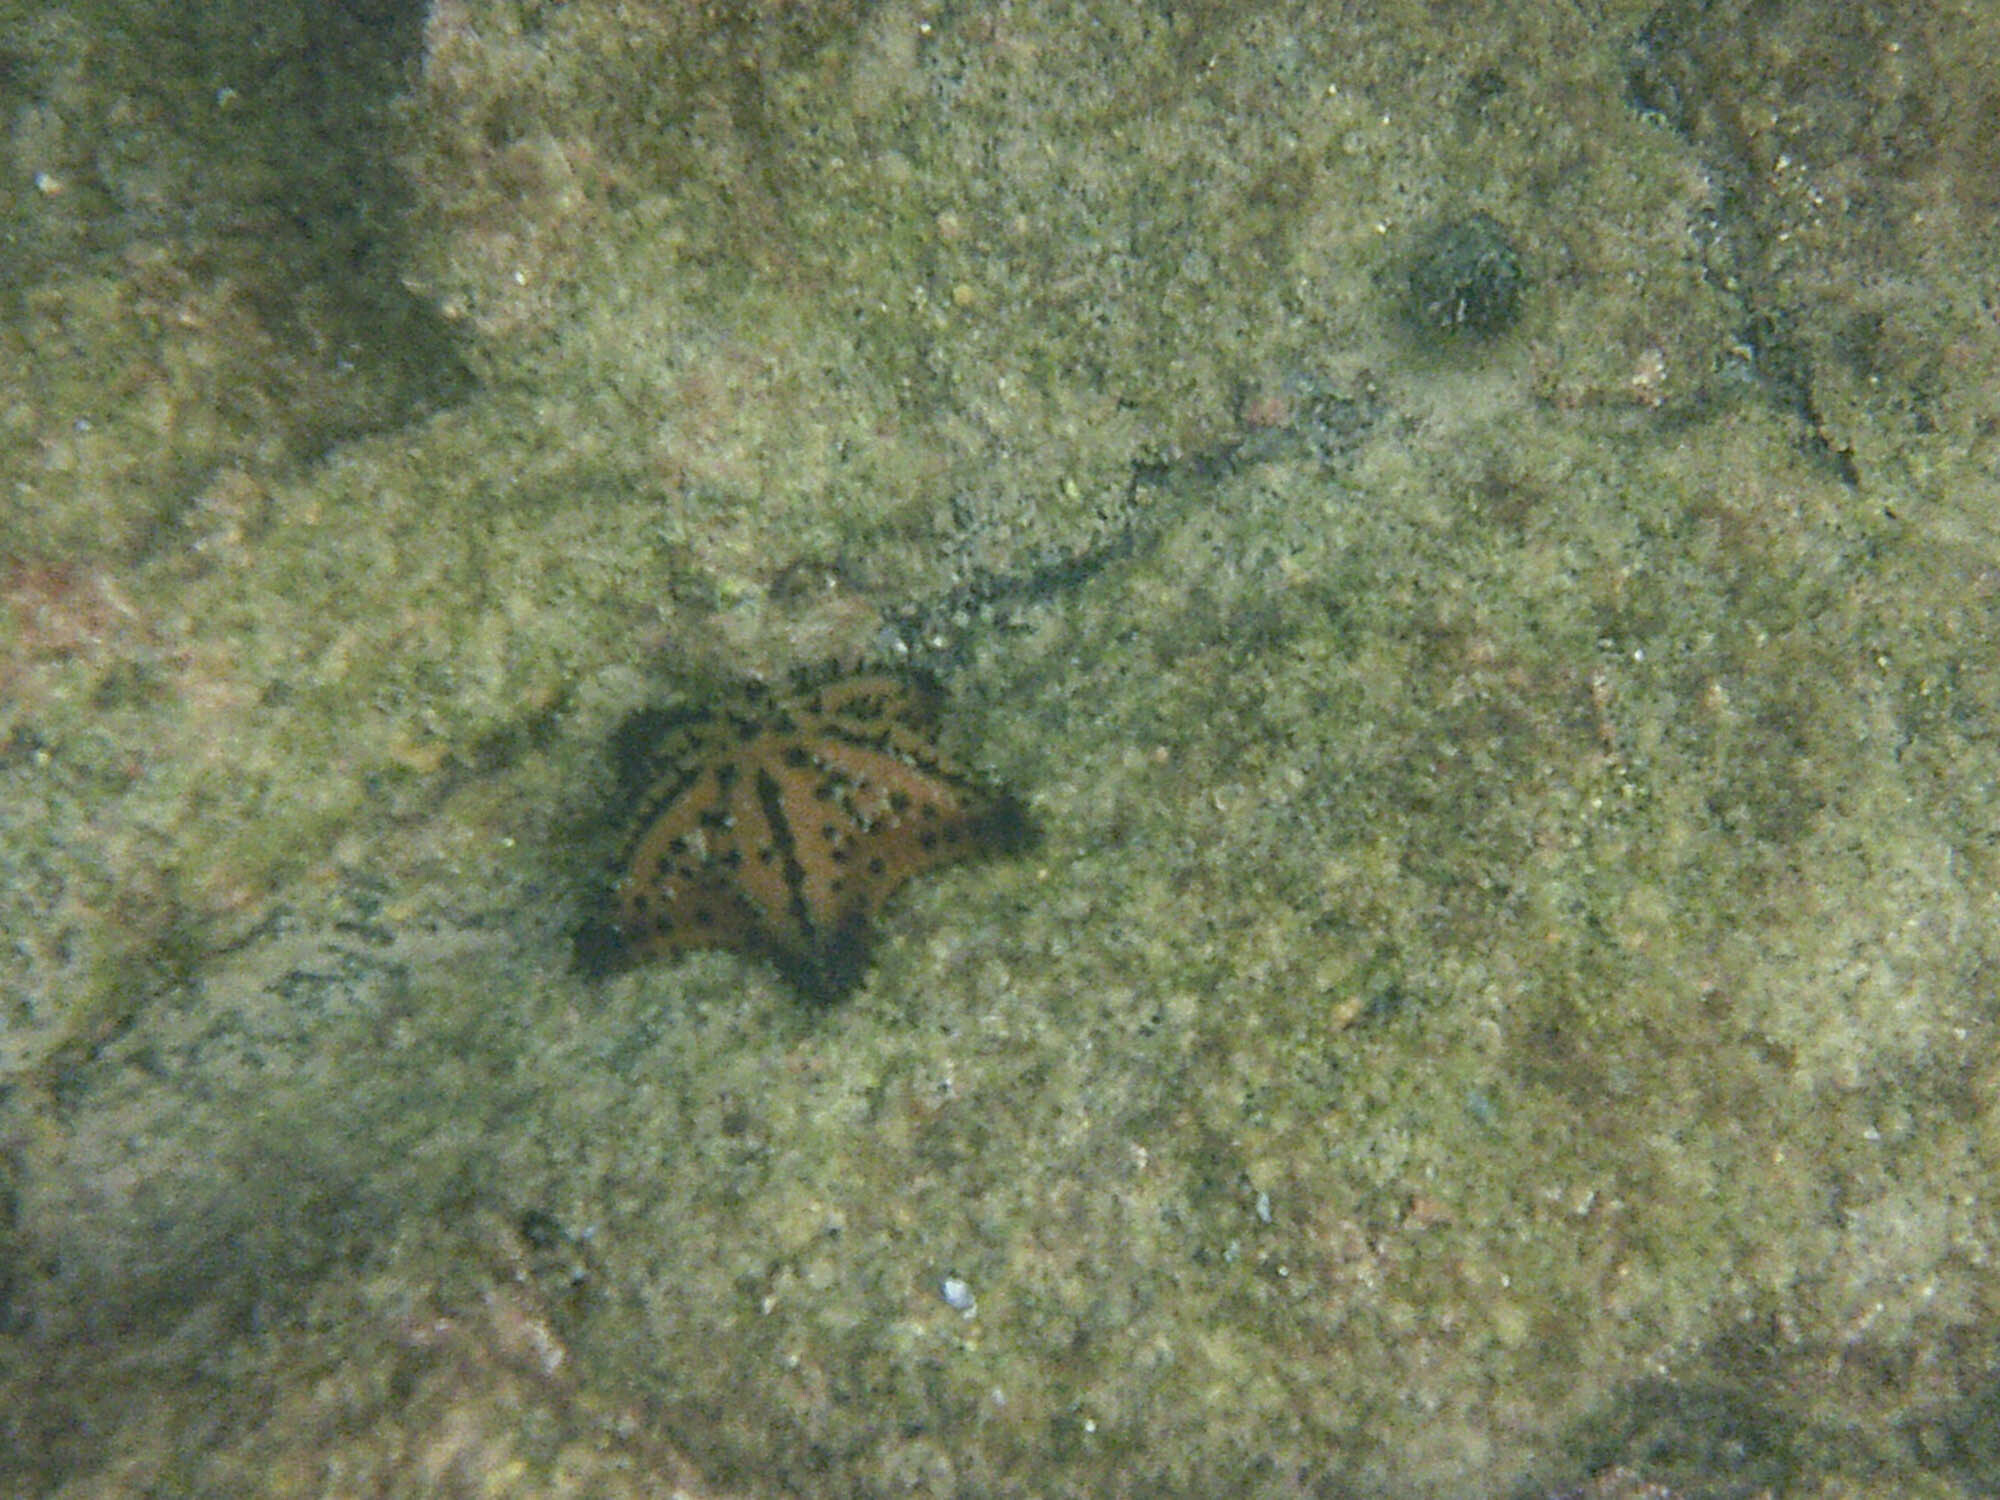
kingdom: Animalia
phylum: Echinodermata
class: Asteroidea
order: Valvatida
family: Oreasteridae
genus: Nidorellia
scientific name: Nidorellia armata
